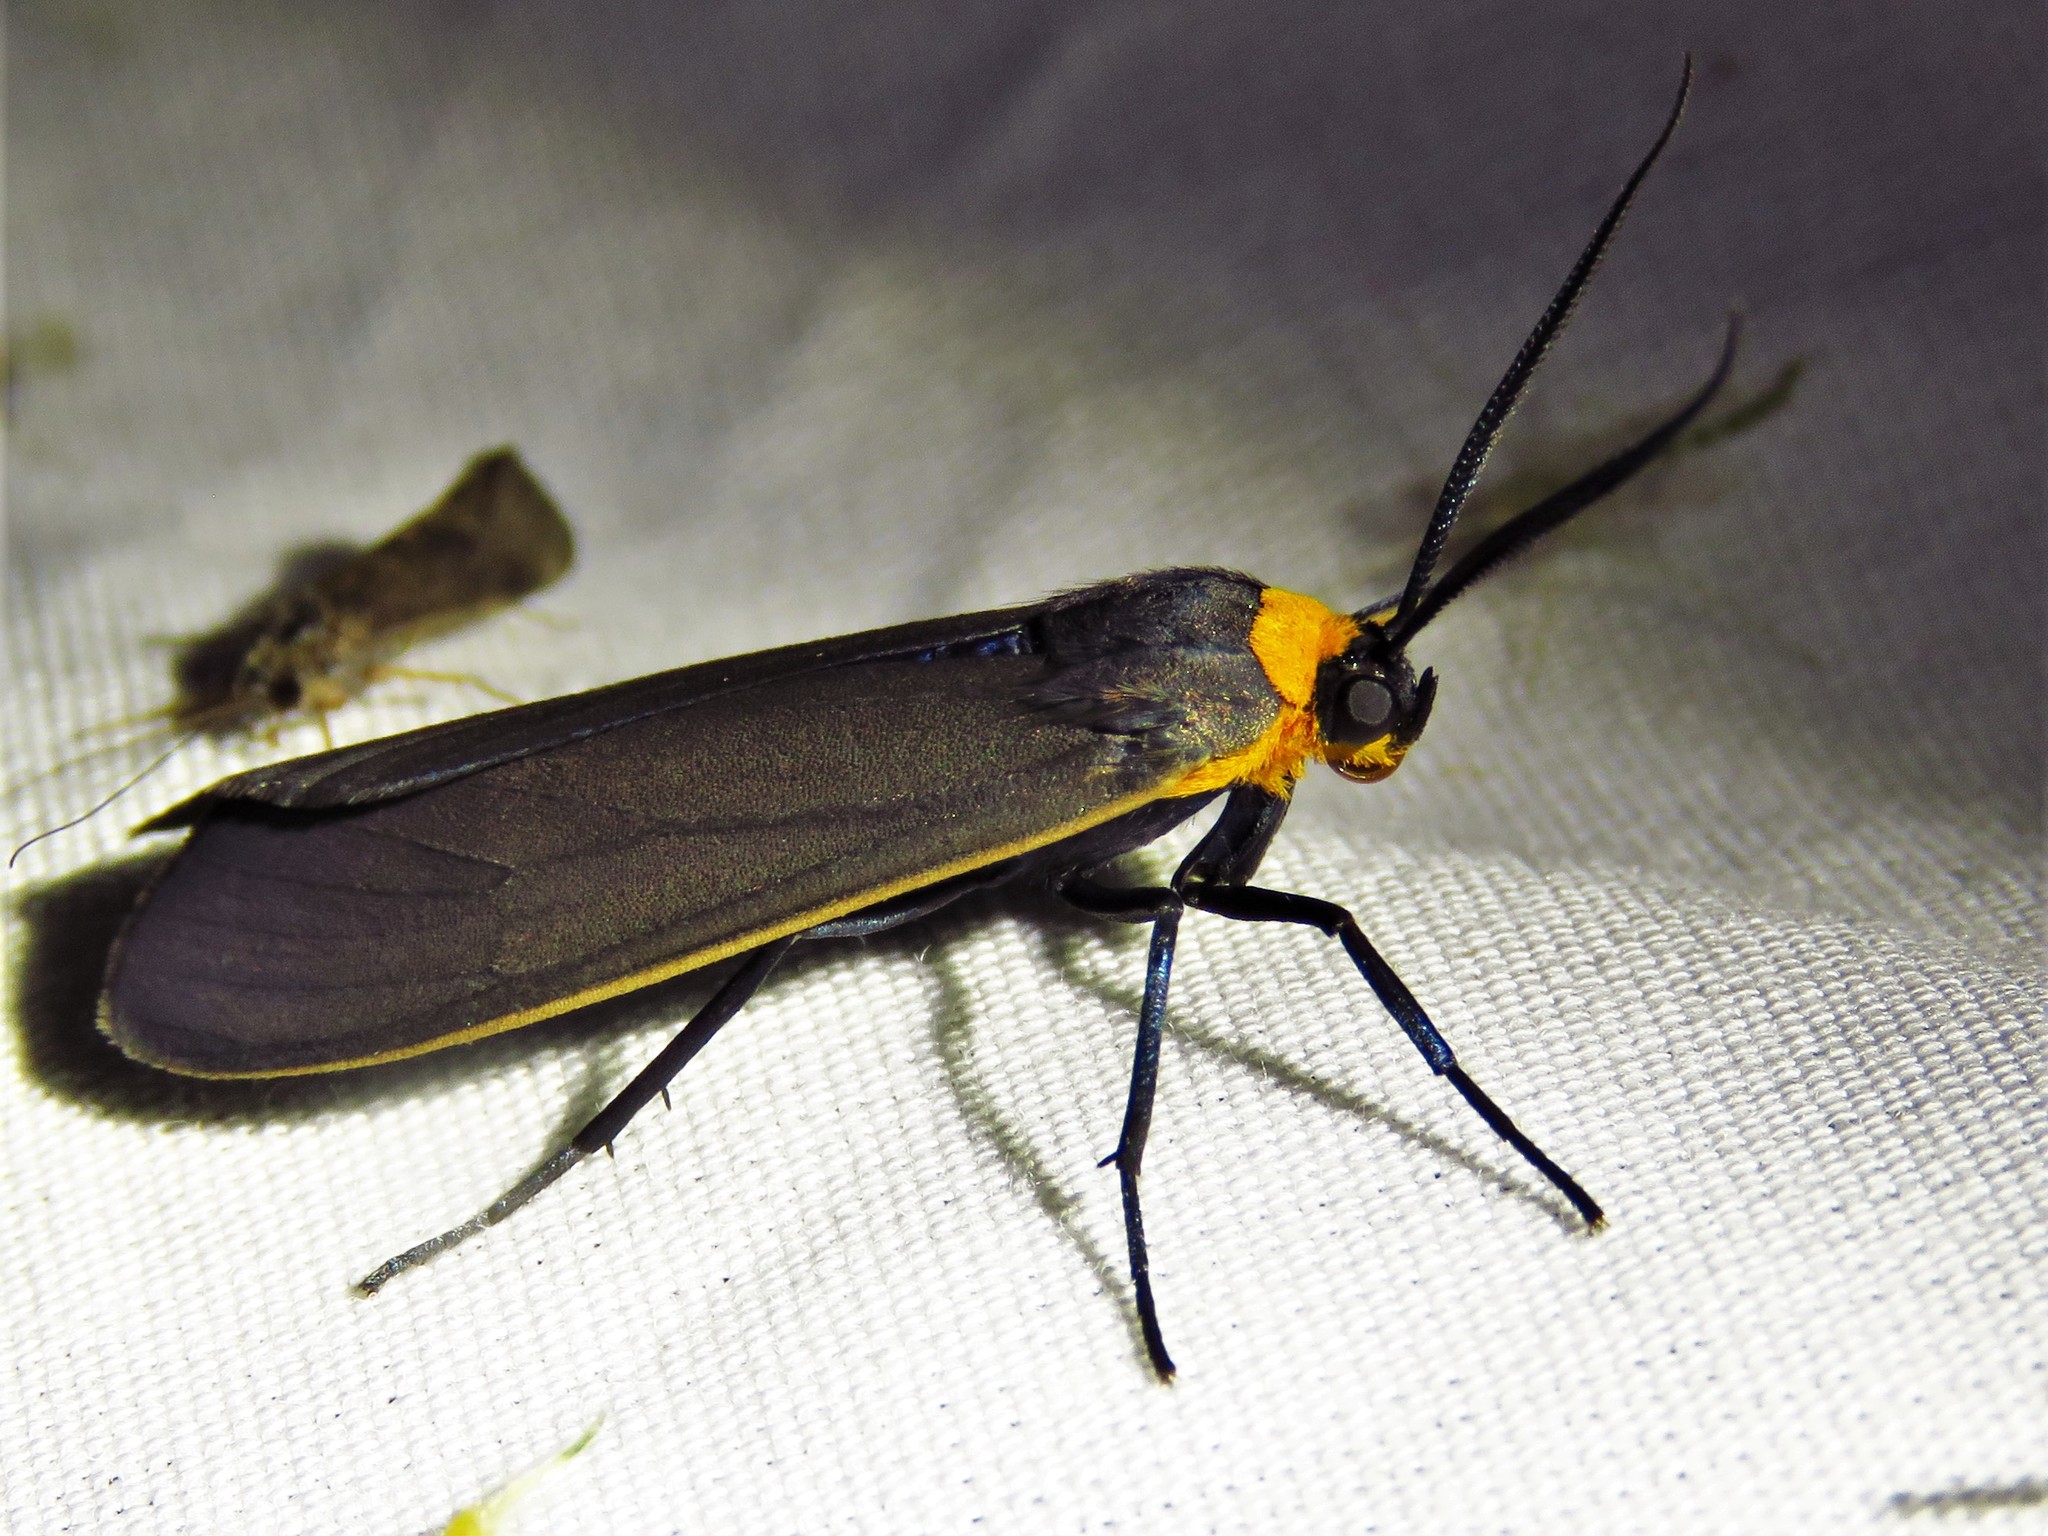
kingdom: Animalia
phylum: Arthropoda
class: Insecta
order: Lepidoptera
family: Erebidae
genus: Cisseps
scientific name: Cisseps fulvicollis
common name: Yellow-collared scape moth
